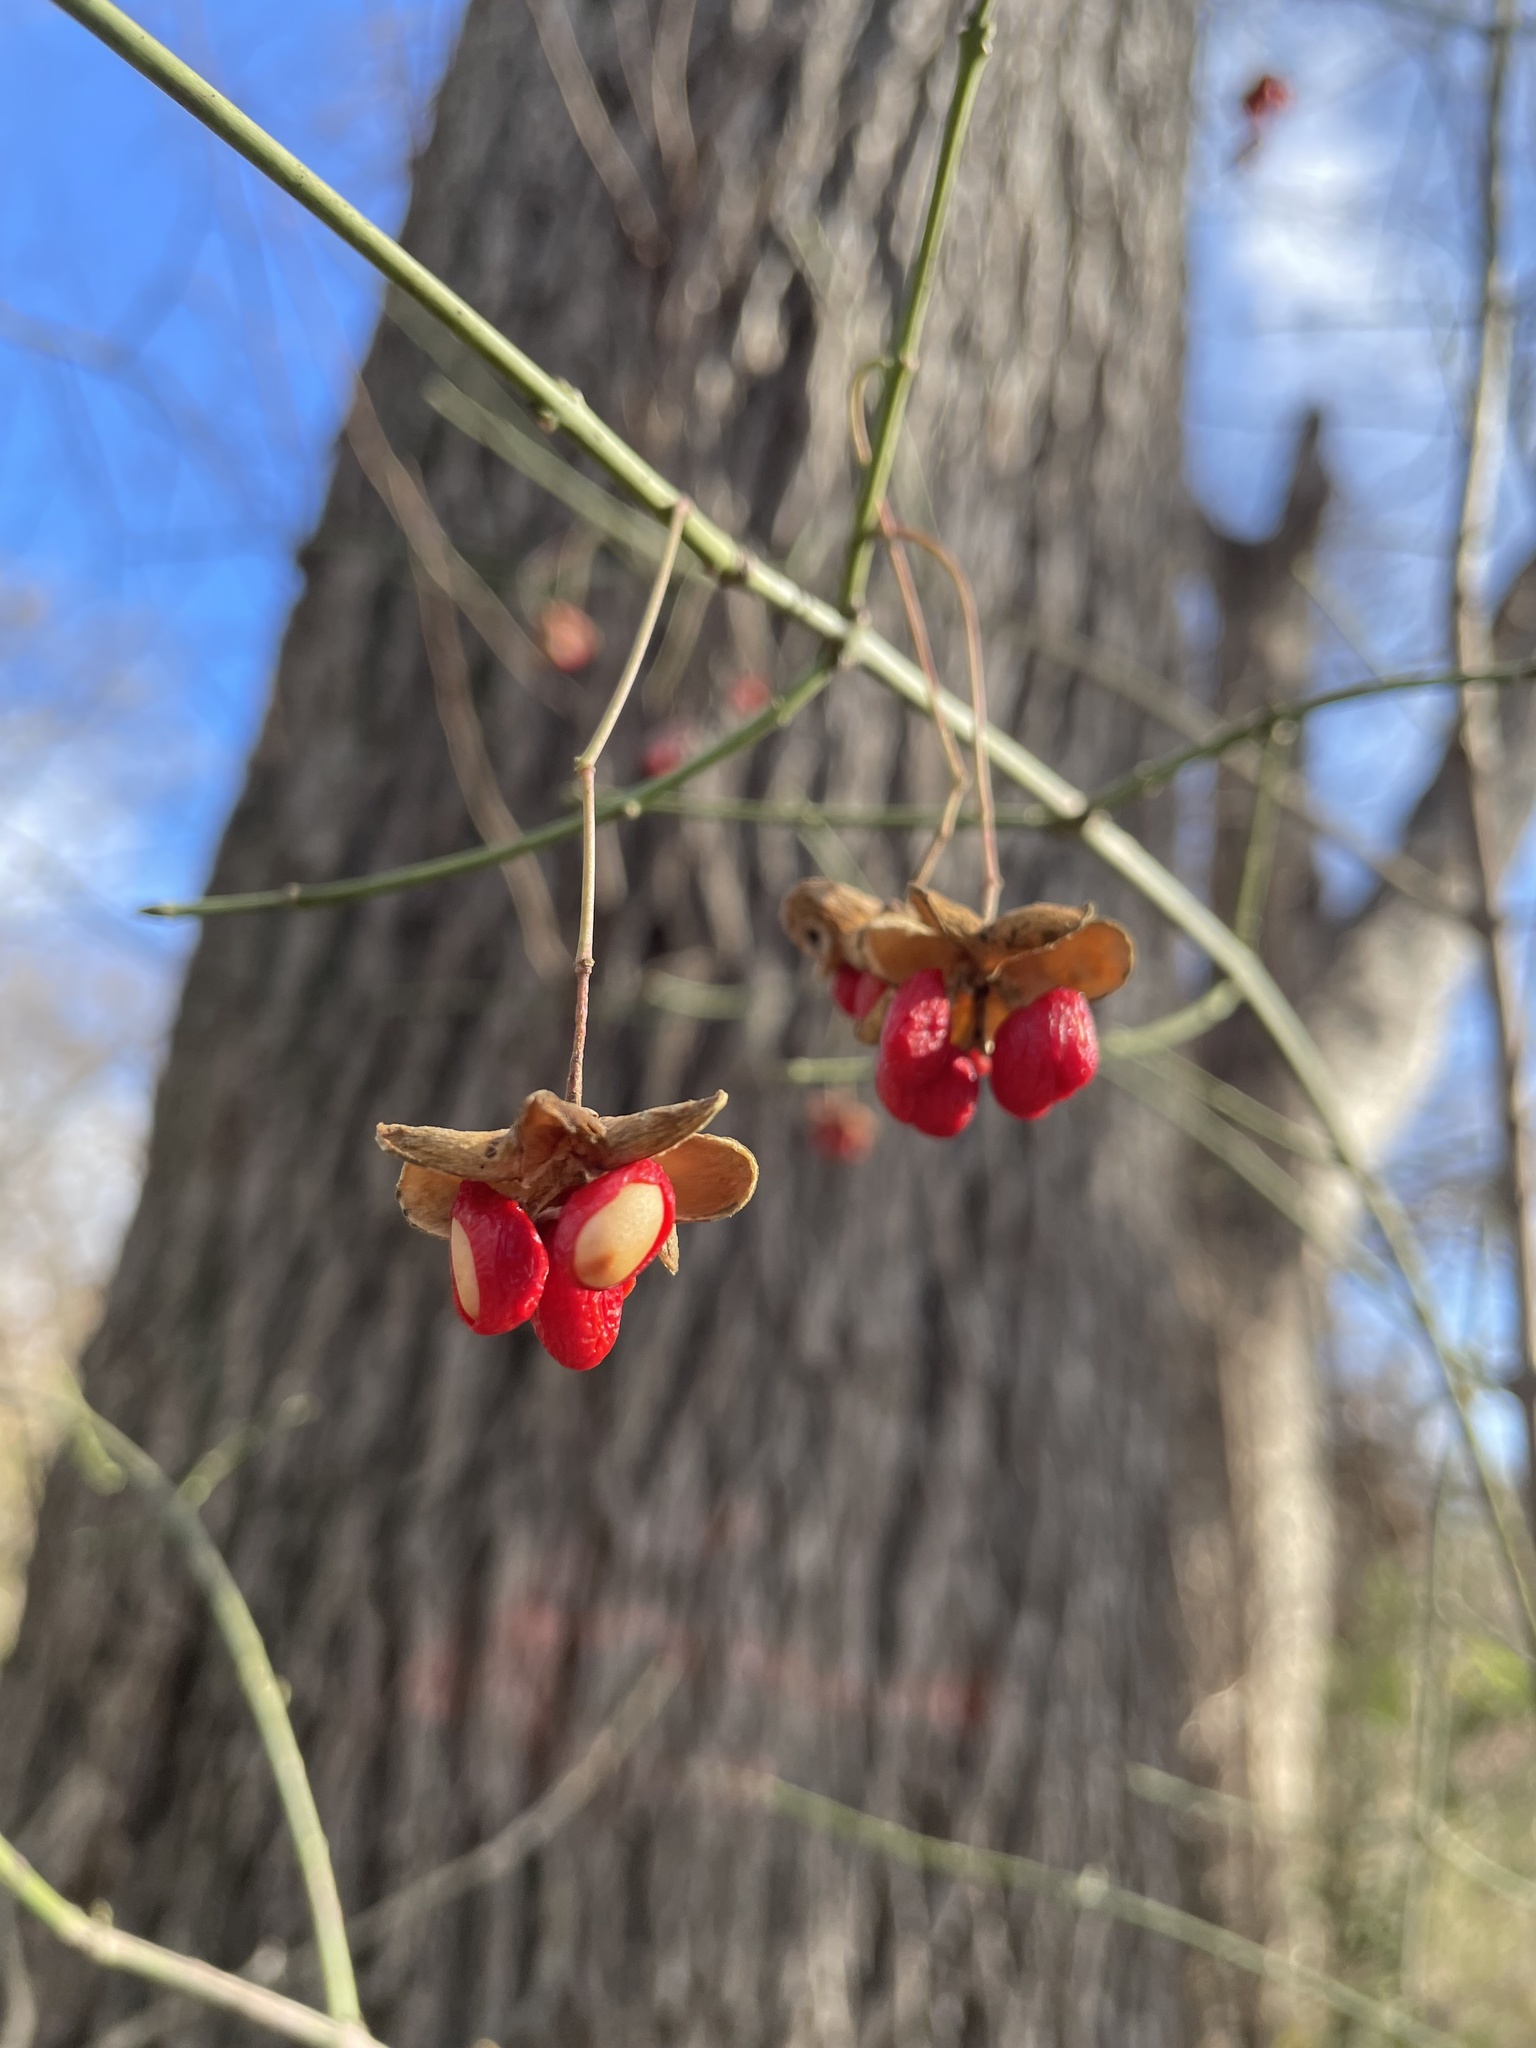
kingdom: Plantae
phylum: Tracheophyta
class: Magnoliopsida
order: Celastrales
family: Celastraceae
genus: Euonymus
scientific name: Euonymus fortunei
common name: Climbing euonymus
